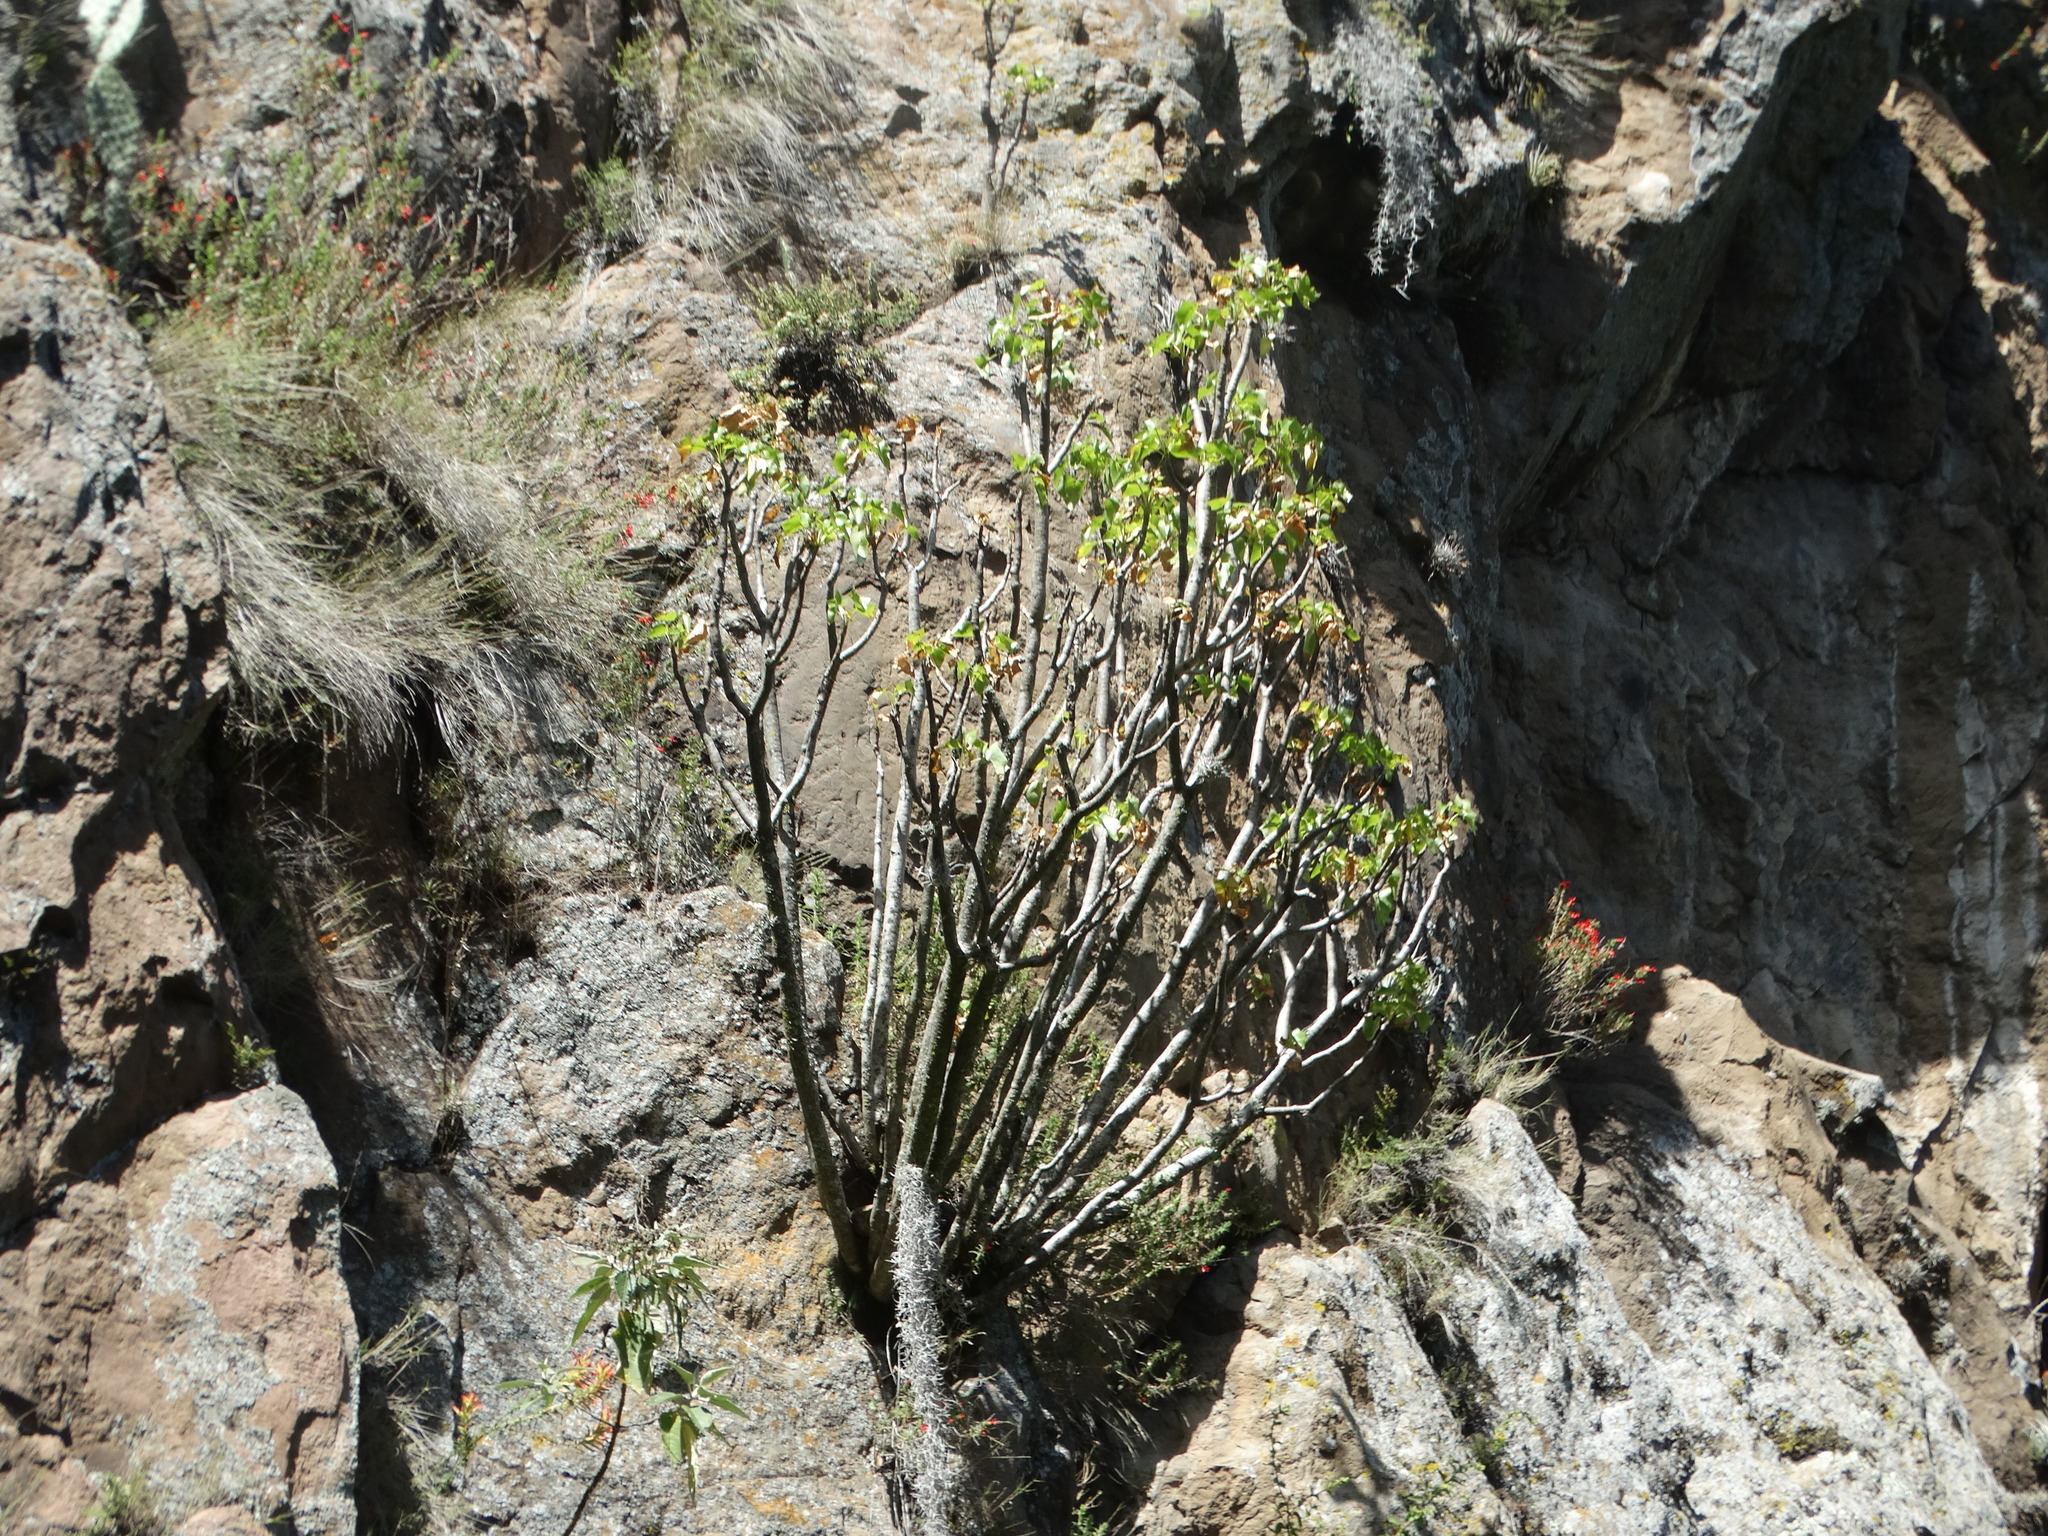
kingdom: Plantae
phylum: Tracheophyta
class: Magnoliopsida
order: Asterales
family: Asteraceae
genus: Pittocaulon
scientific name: Pittocaulon praecox
